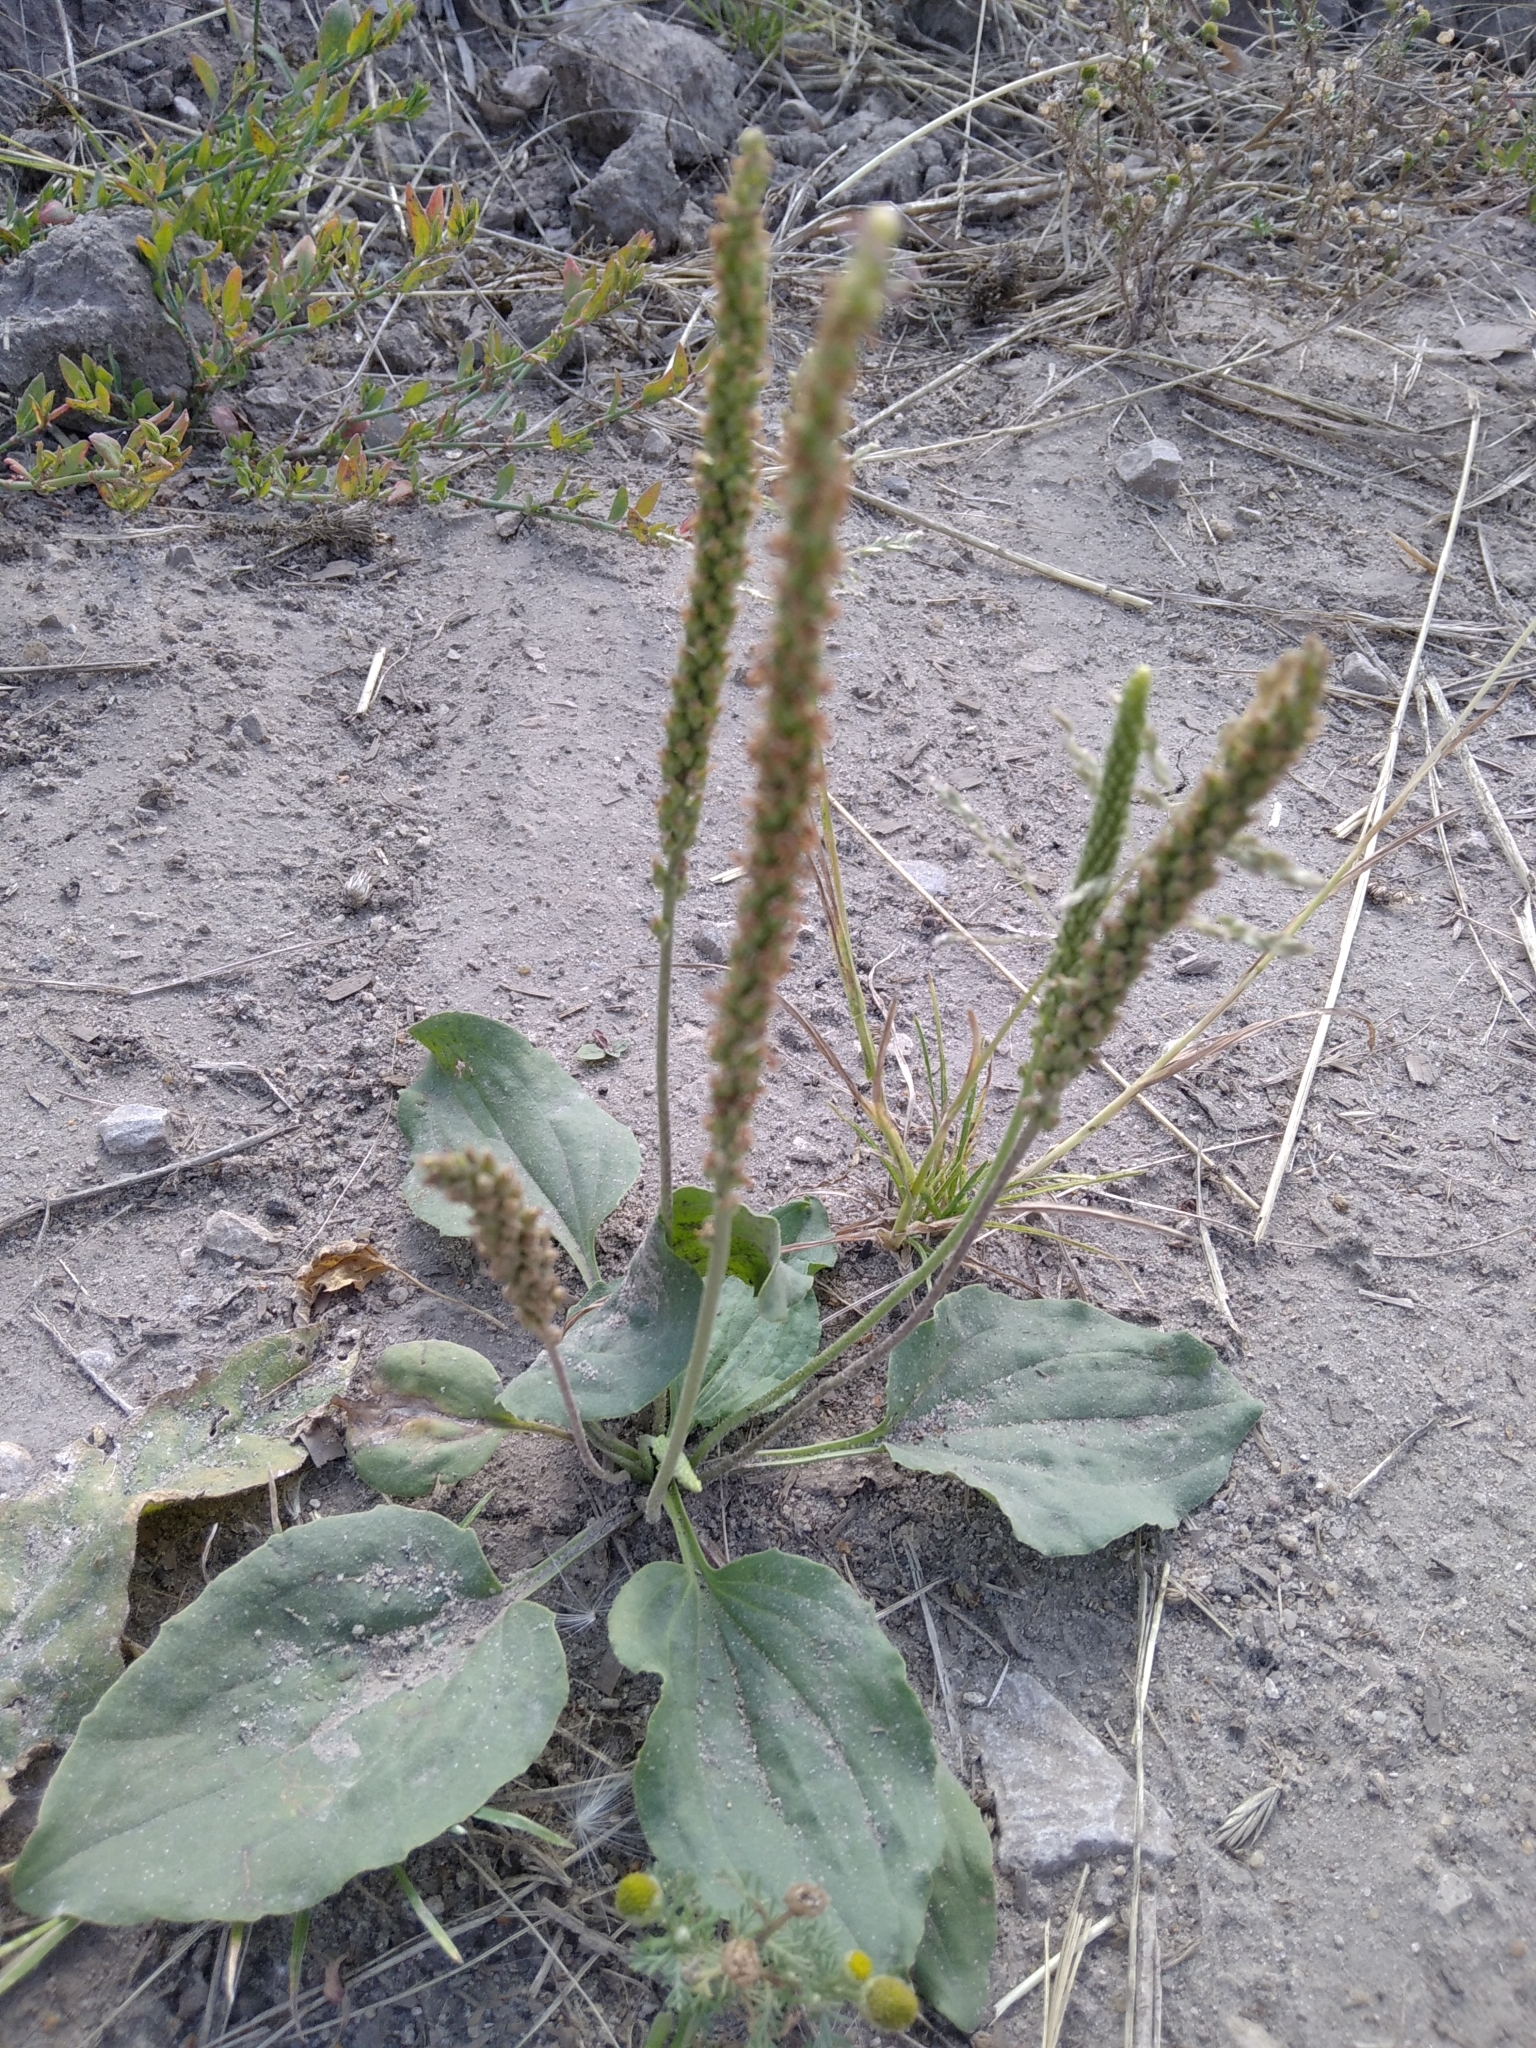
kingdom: Plantae
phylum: Tracheophyta
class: Magnoliopsida
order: Lamiales
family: Plantaginaceae
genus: Plantago
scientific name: Plantago major
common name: Common plantain
